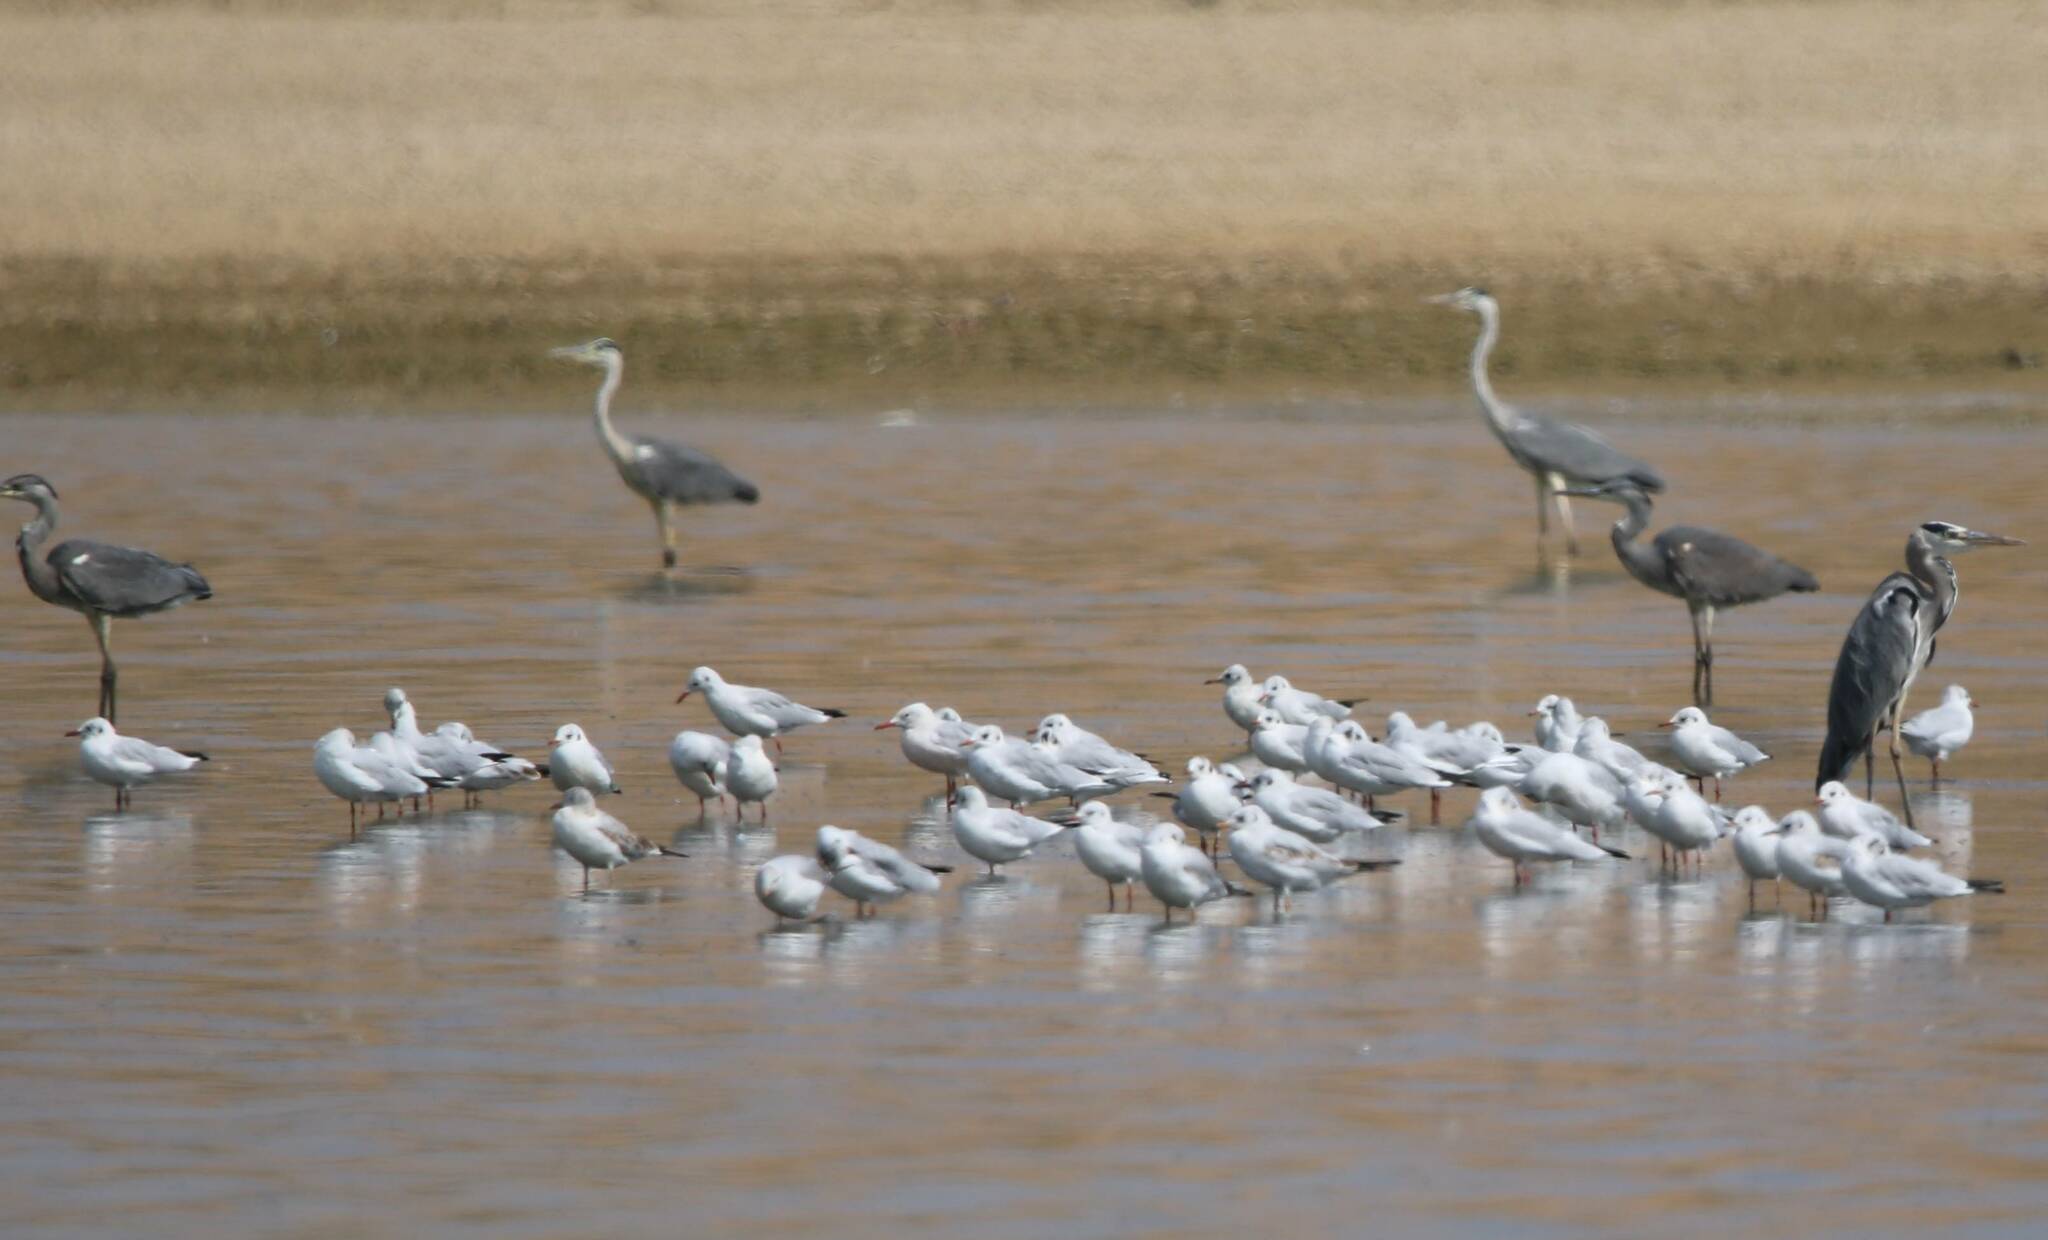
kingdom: Animalia
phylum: Chordata
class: Aves
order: Pelecaniformes
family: Ardeidae
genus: Ardea
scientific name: Ardea cinerea
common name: Grey heron
